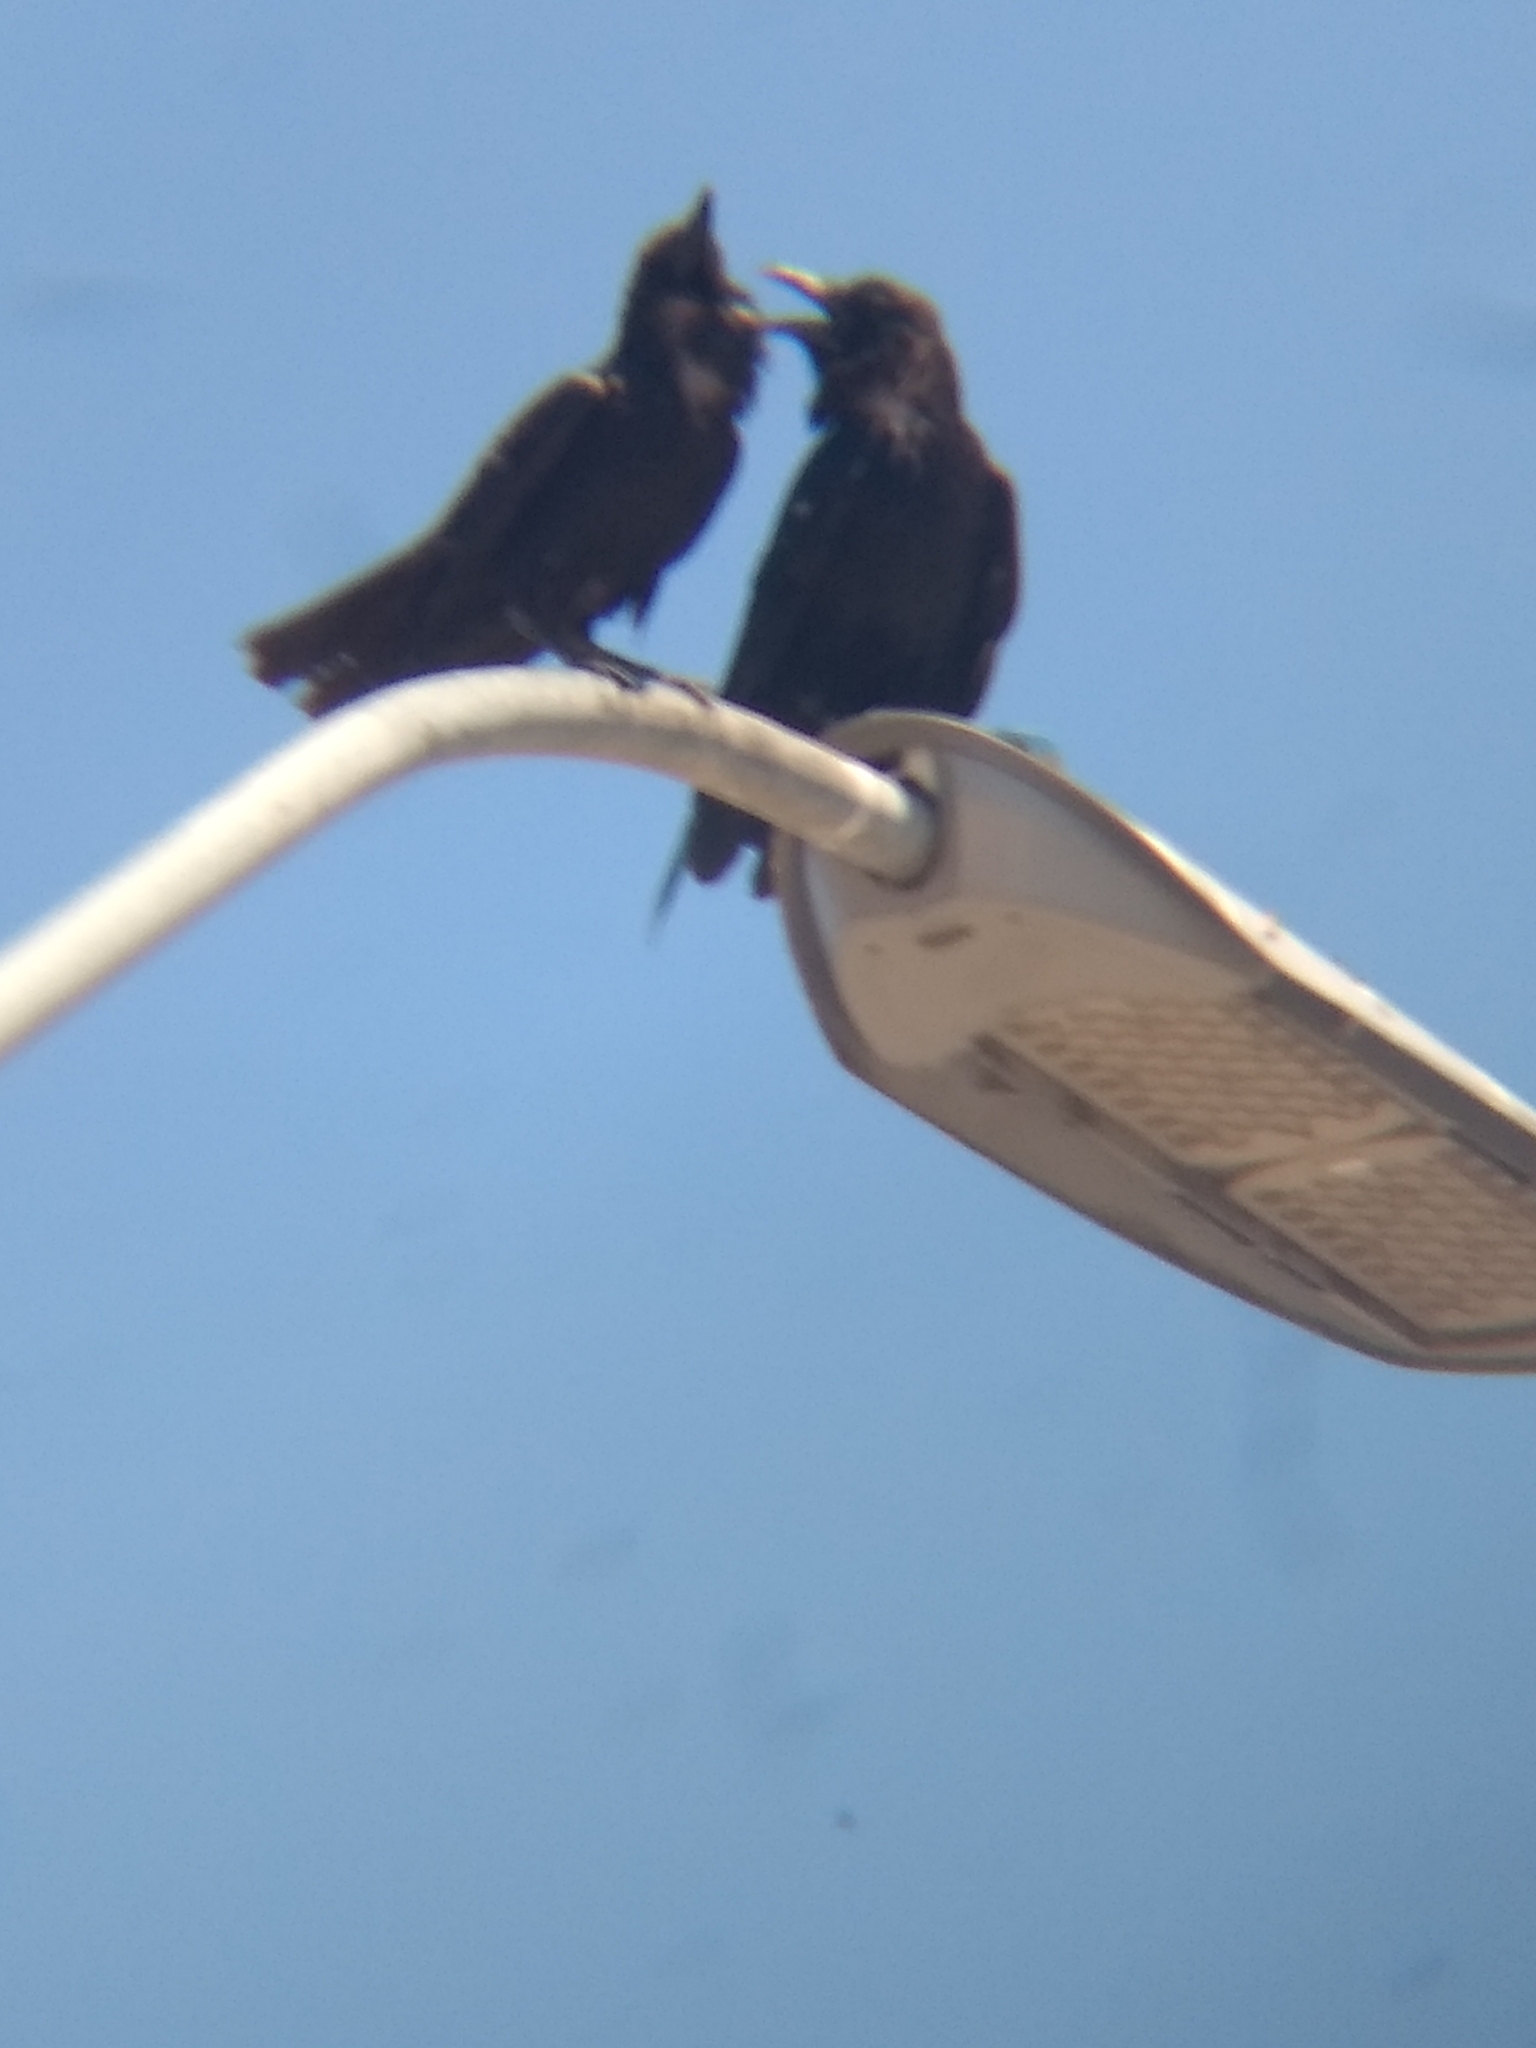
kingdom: Animalia
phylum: Chordata
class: Aves
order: Passeriformes
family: Corvidae
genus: Corvus
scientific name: Corvus corax
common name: Common raven
